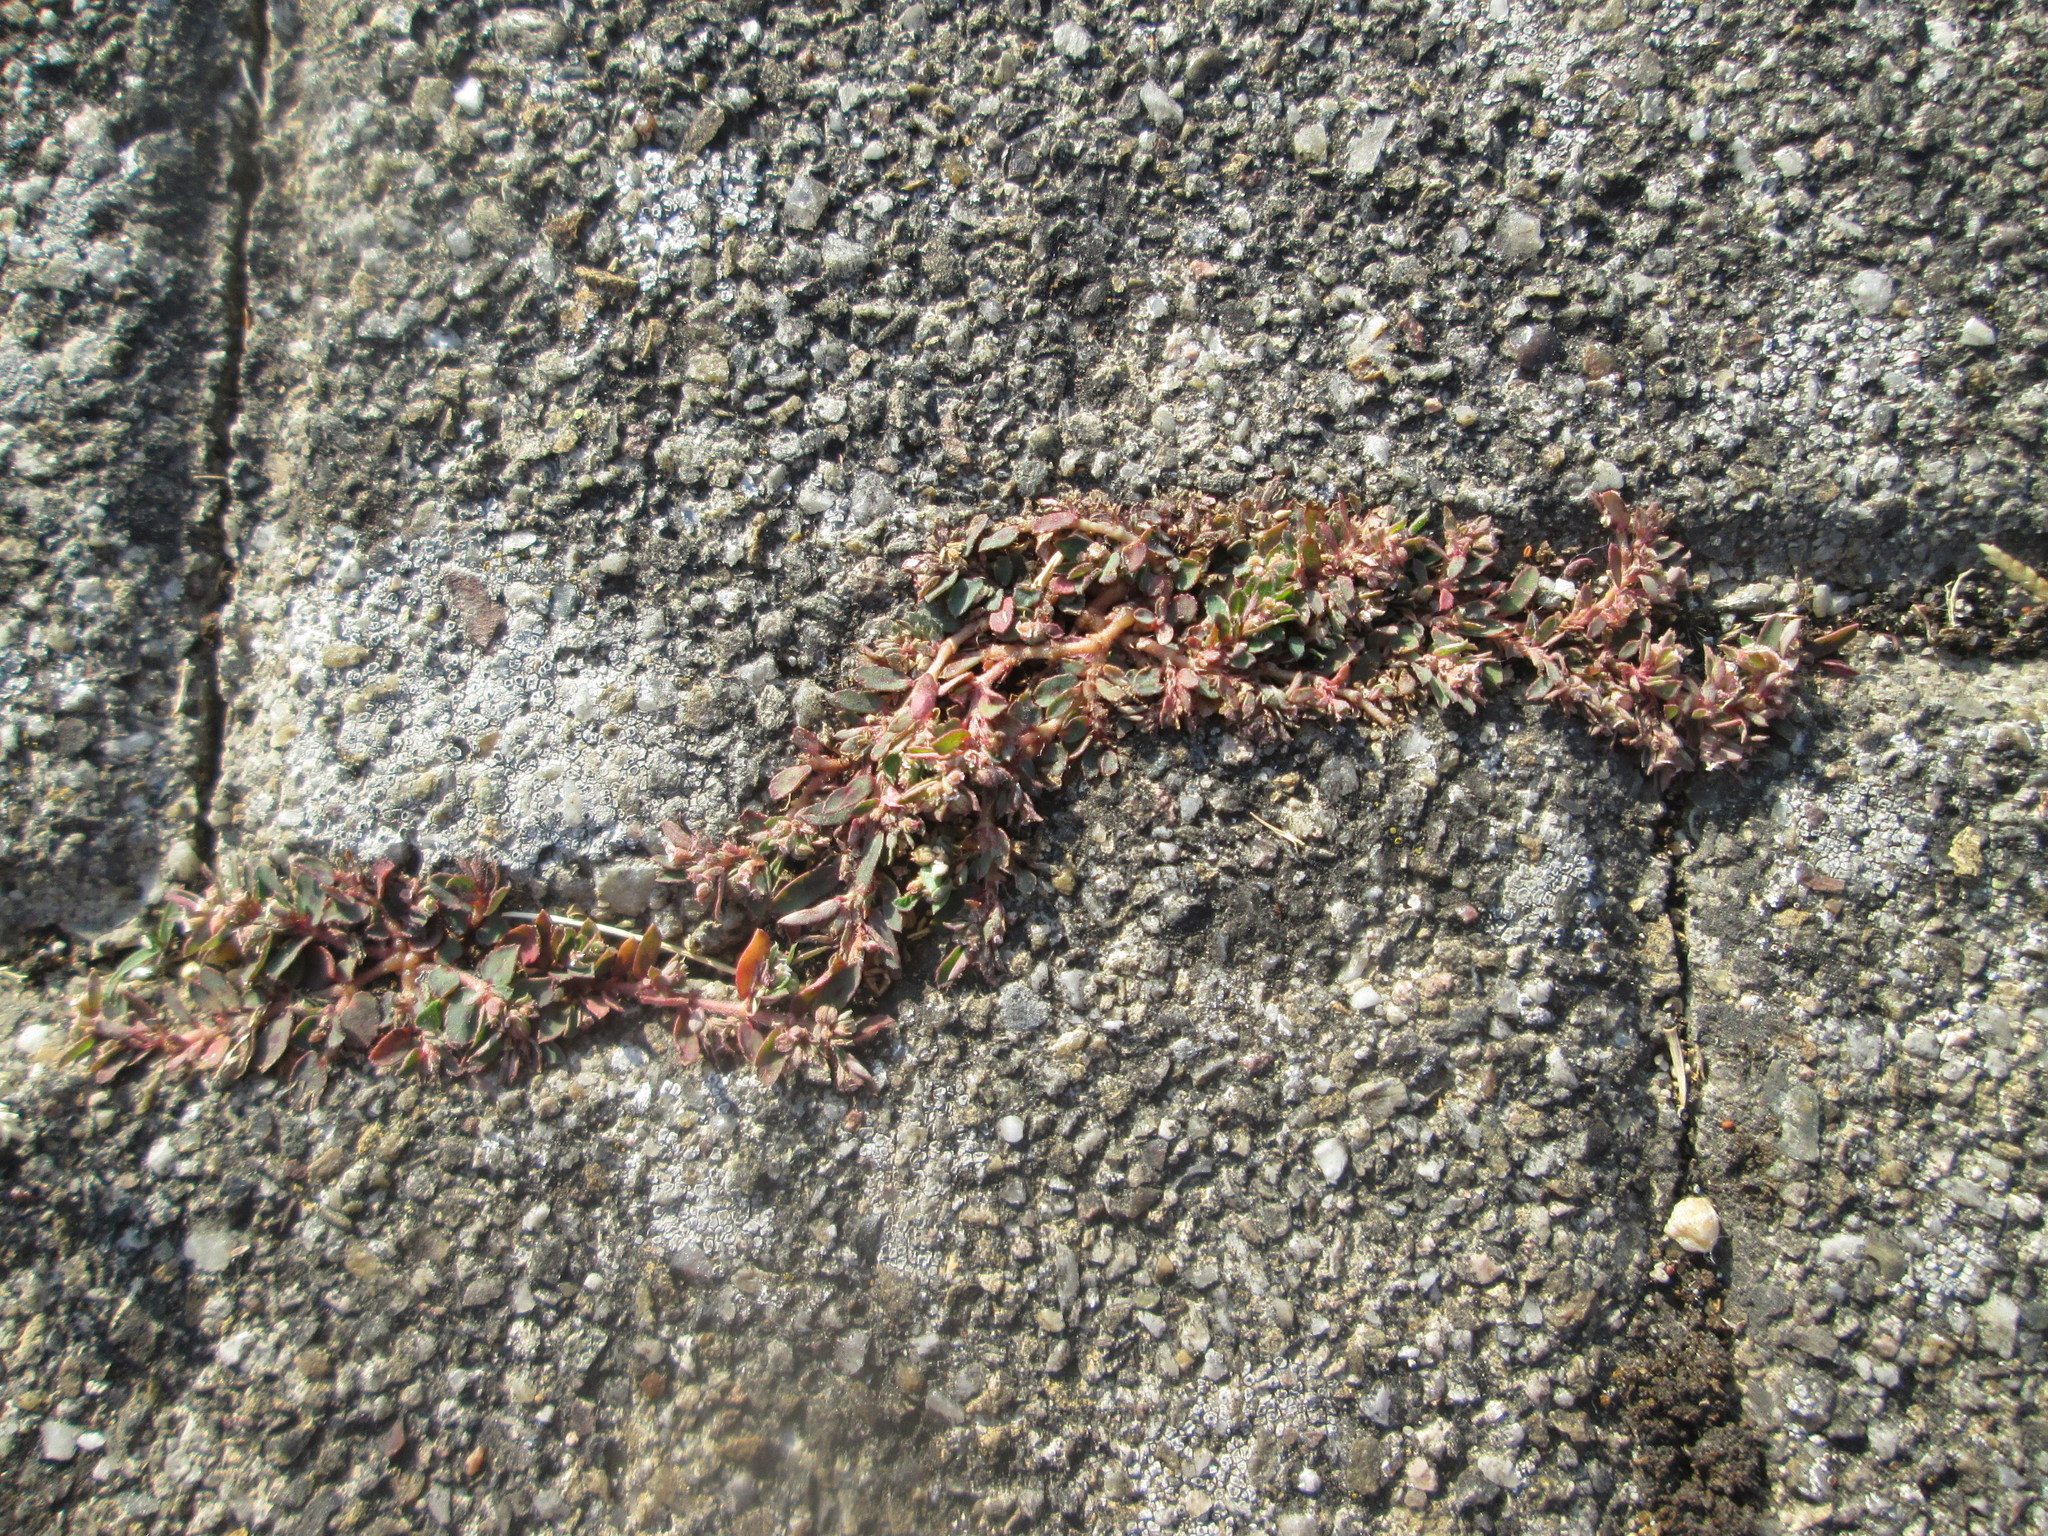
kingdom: Plantae
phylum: Tracheophyta
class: Magnoliopsida
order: Malpighiales
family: Euphorbiaceae
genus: Euphorbia
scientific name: Euphorbia maculata
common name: Spotted spurge
